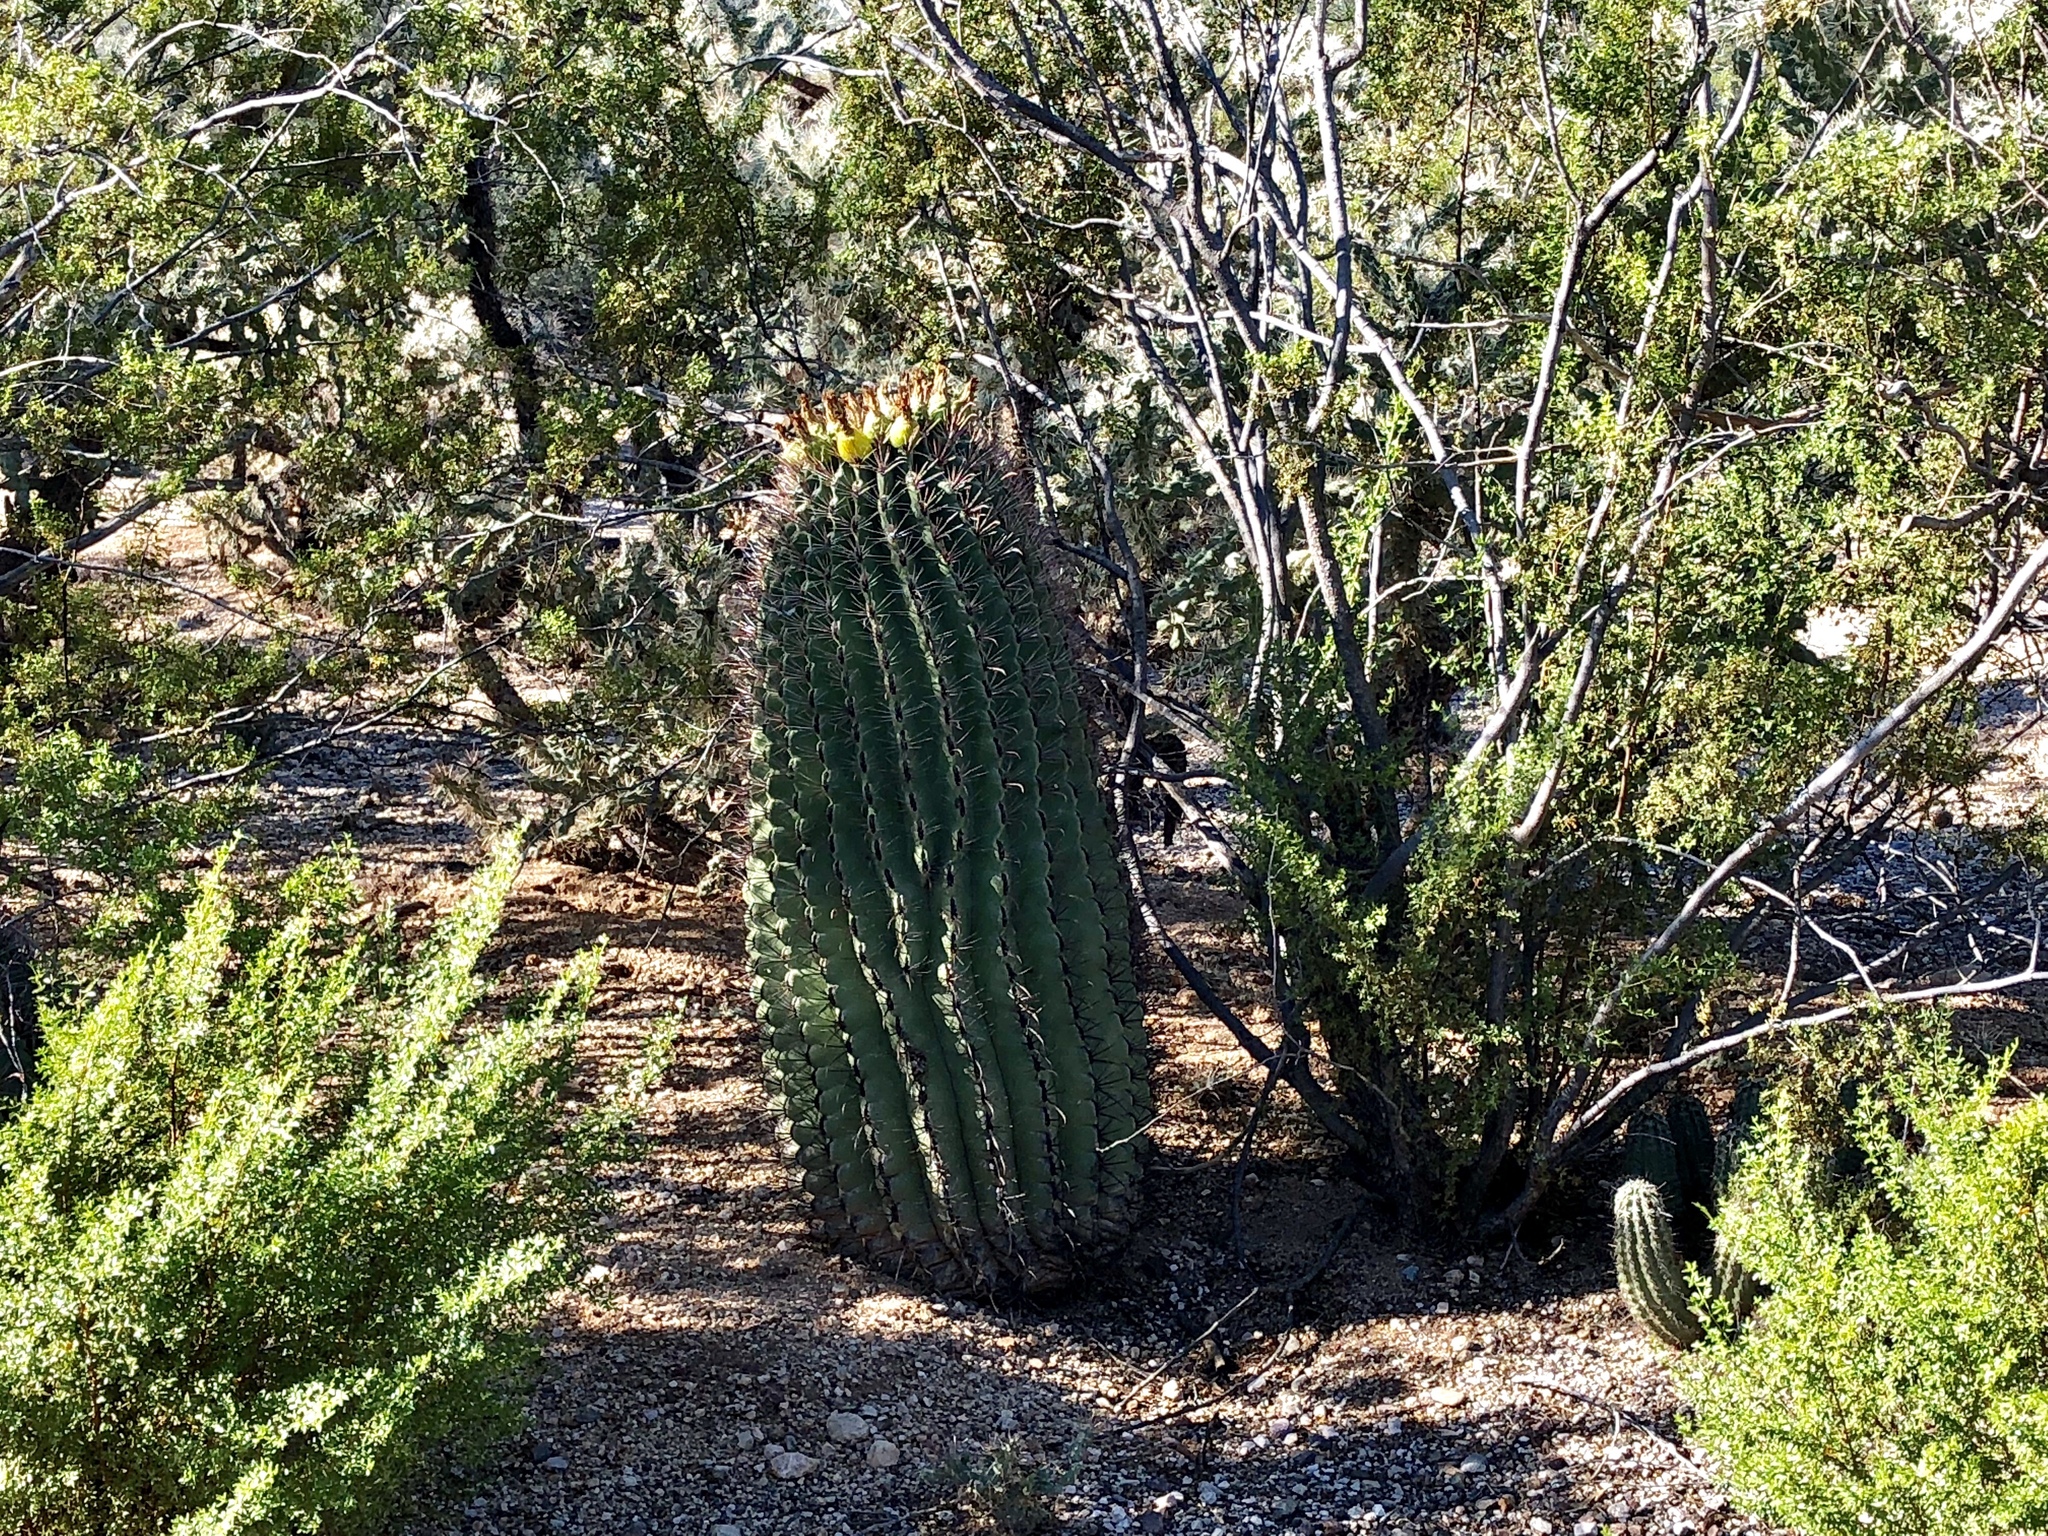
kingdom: Plantae
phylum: Tracheophyta
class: Magnoliopsida
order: Caryophyllales
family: Cactaceae
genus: Ferocactus
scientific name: Ferocactus wislizeni
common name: Candy barrel cactus
